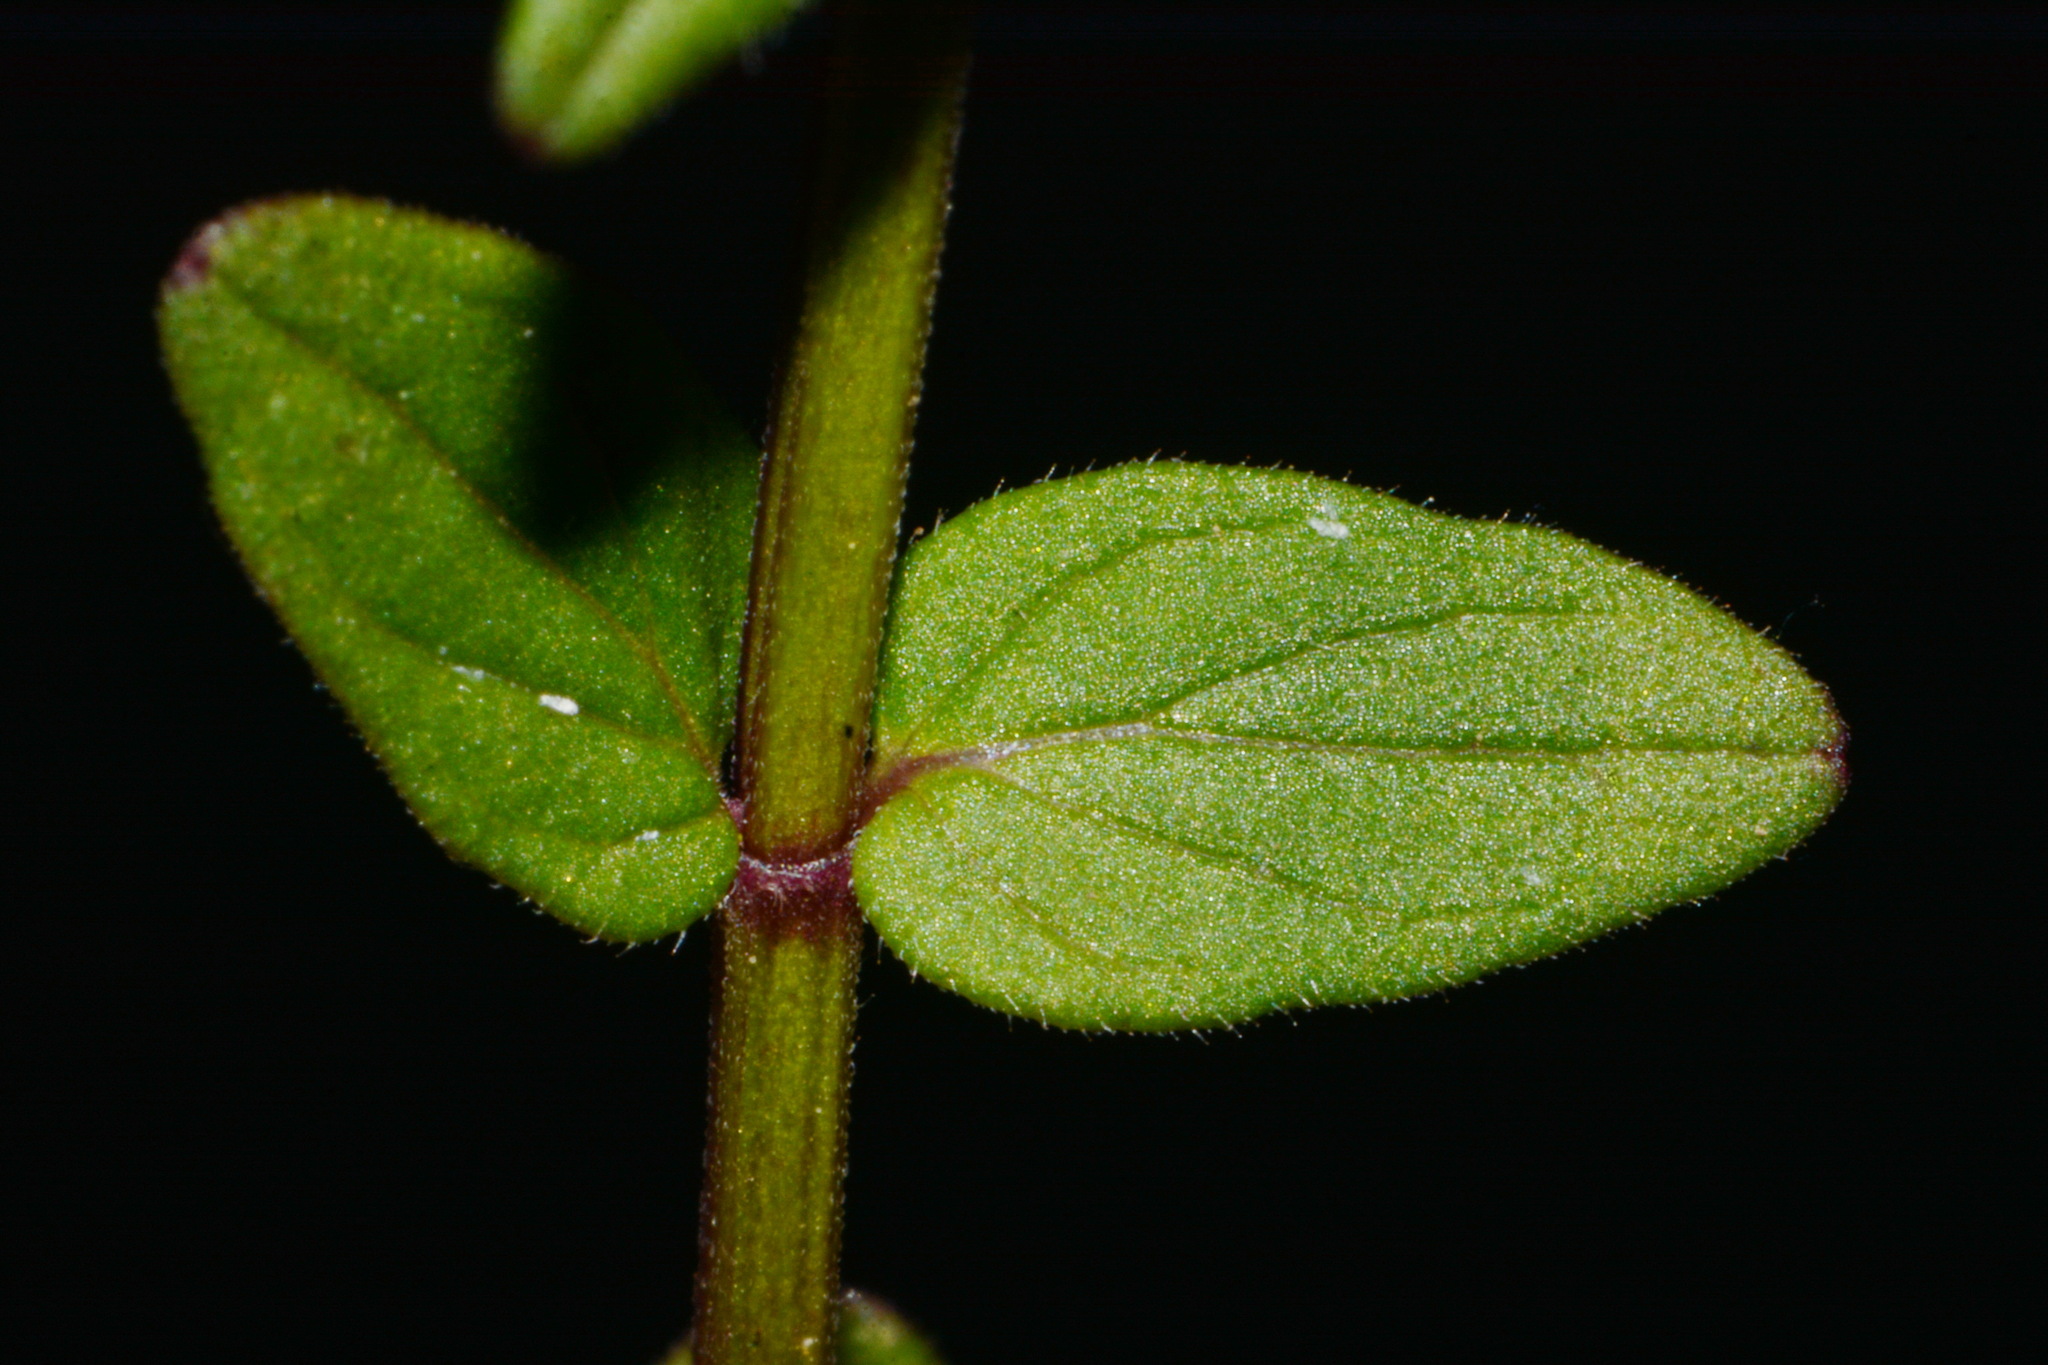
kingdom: Plantae
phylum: Tracheophyta
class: Magnoliopsida
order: Lamiales
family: Lamiaceae
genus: Scutellaria
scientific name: Scutellaria parvula
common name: Little scullcap
